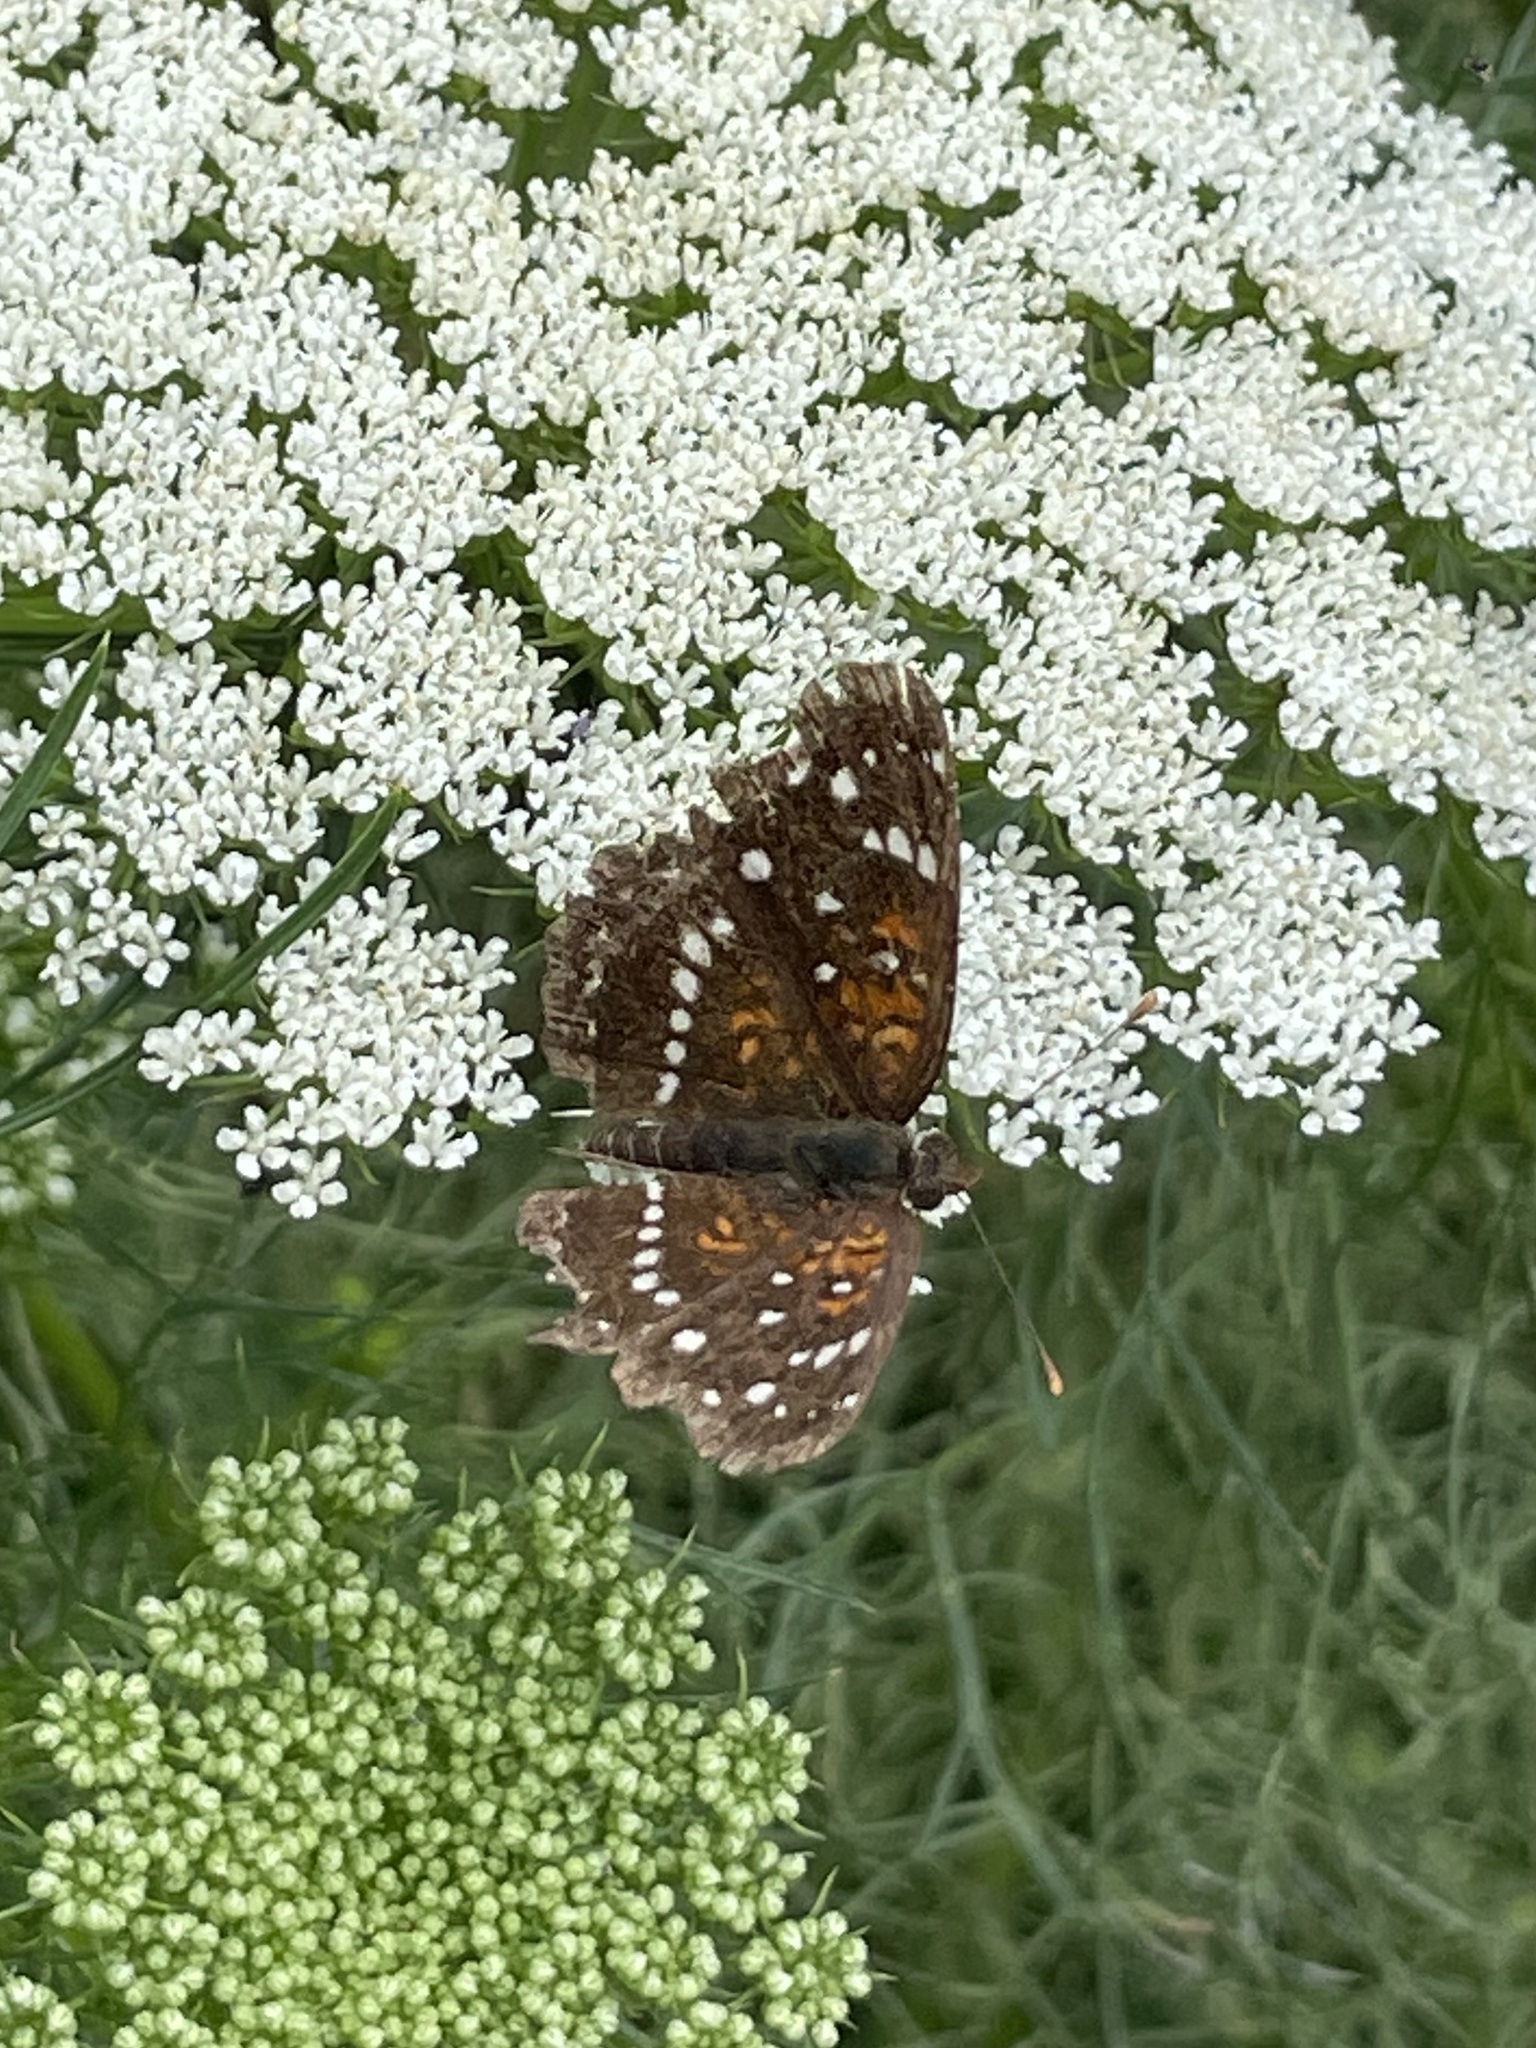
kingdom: Animalia
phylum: Arthropoda
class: Insecta
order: Lepidoptera
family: Nymphalidae
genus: Anthanassa
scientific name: Anthanassa texana
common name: Texan crescent
